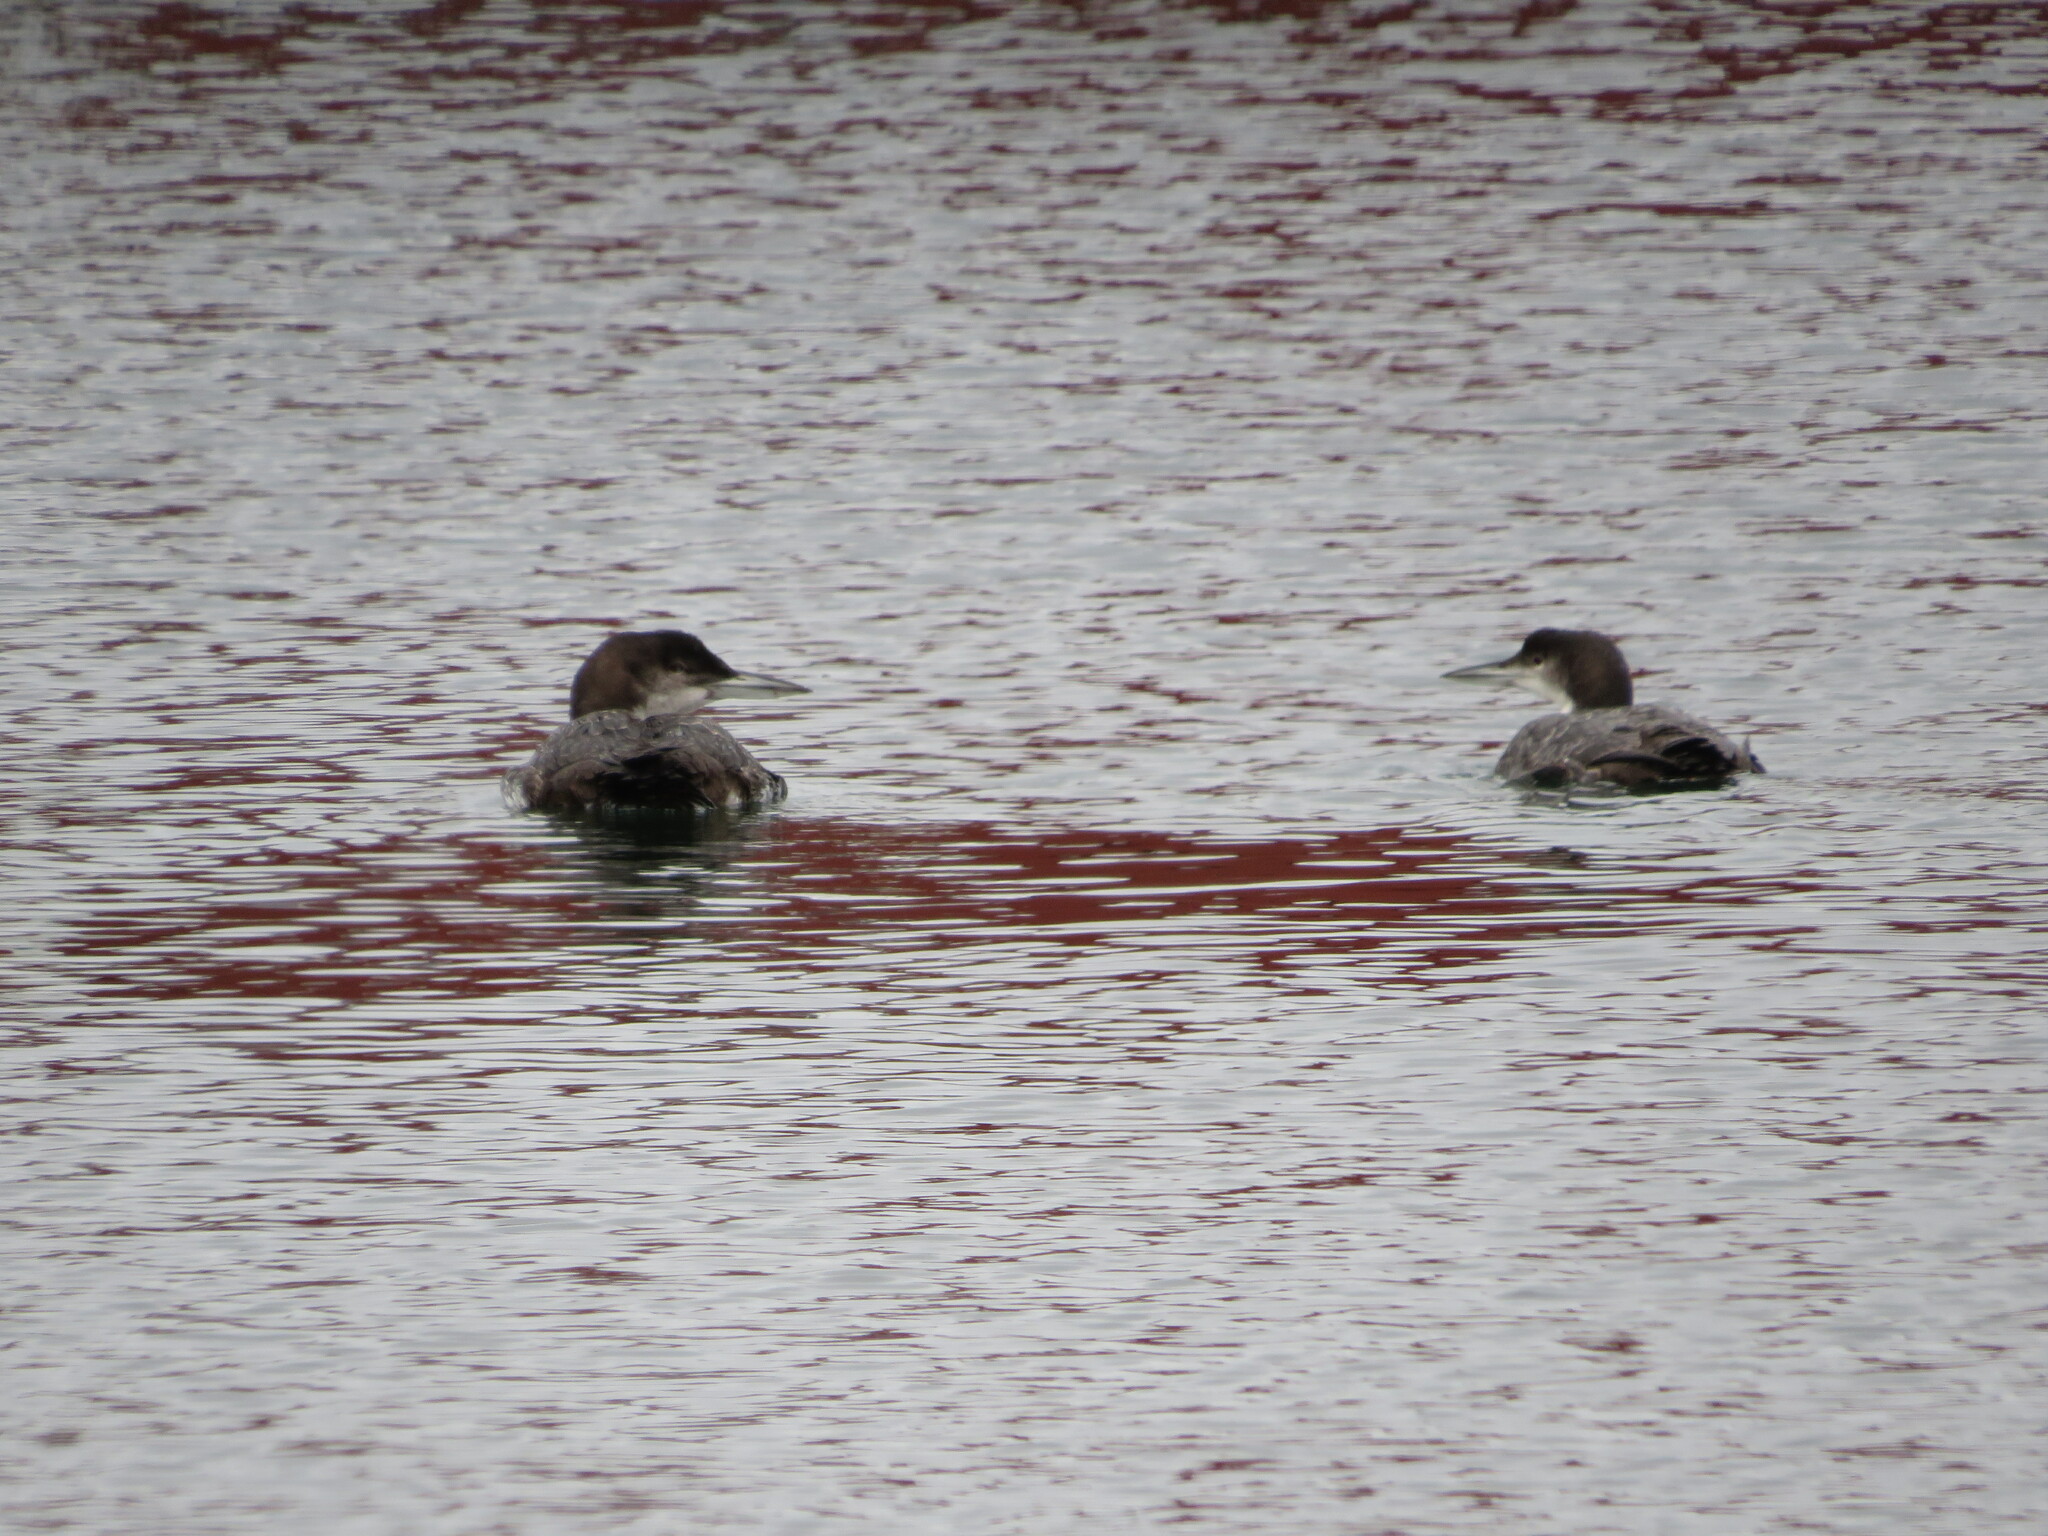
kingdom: Animalia
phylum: Chordata
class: Aves
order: Gaviiformes
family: Gaviidae
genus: Gavia
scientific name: Gavia immer
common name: Common loon
